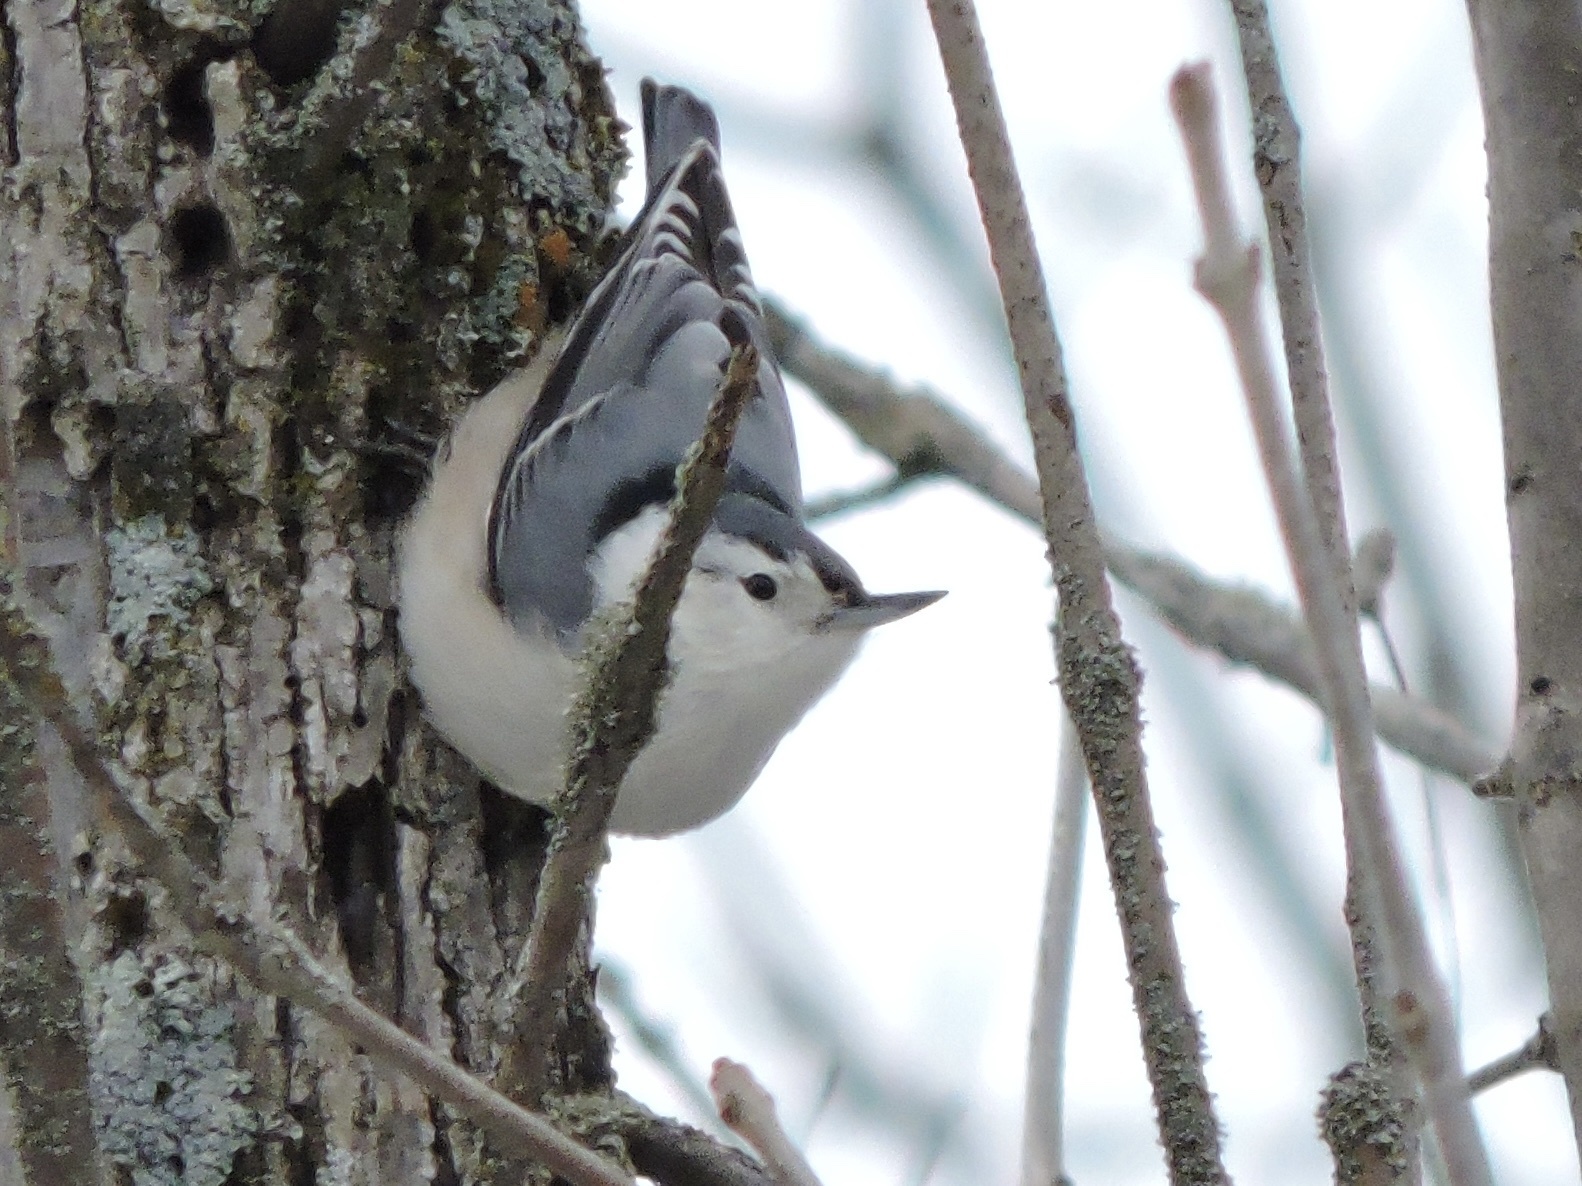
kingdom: Animalia
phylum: Chordata
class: Aves
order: Passeriformes
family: Sittidae
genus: Sitta
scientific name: Sitta carolinensis
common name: White-breasted nuthatch
